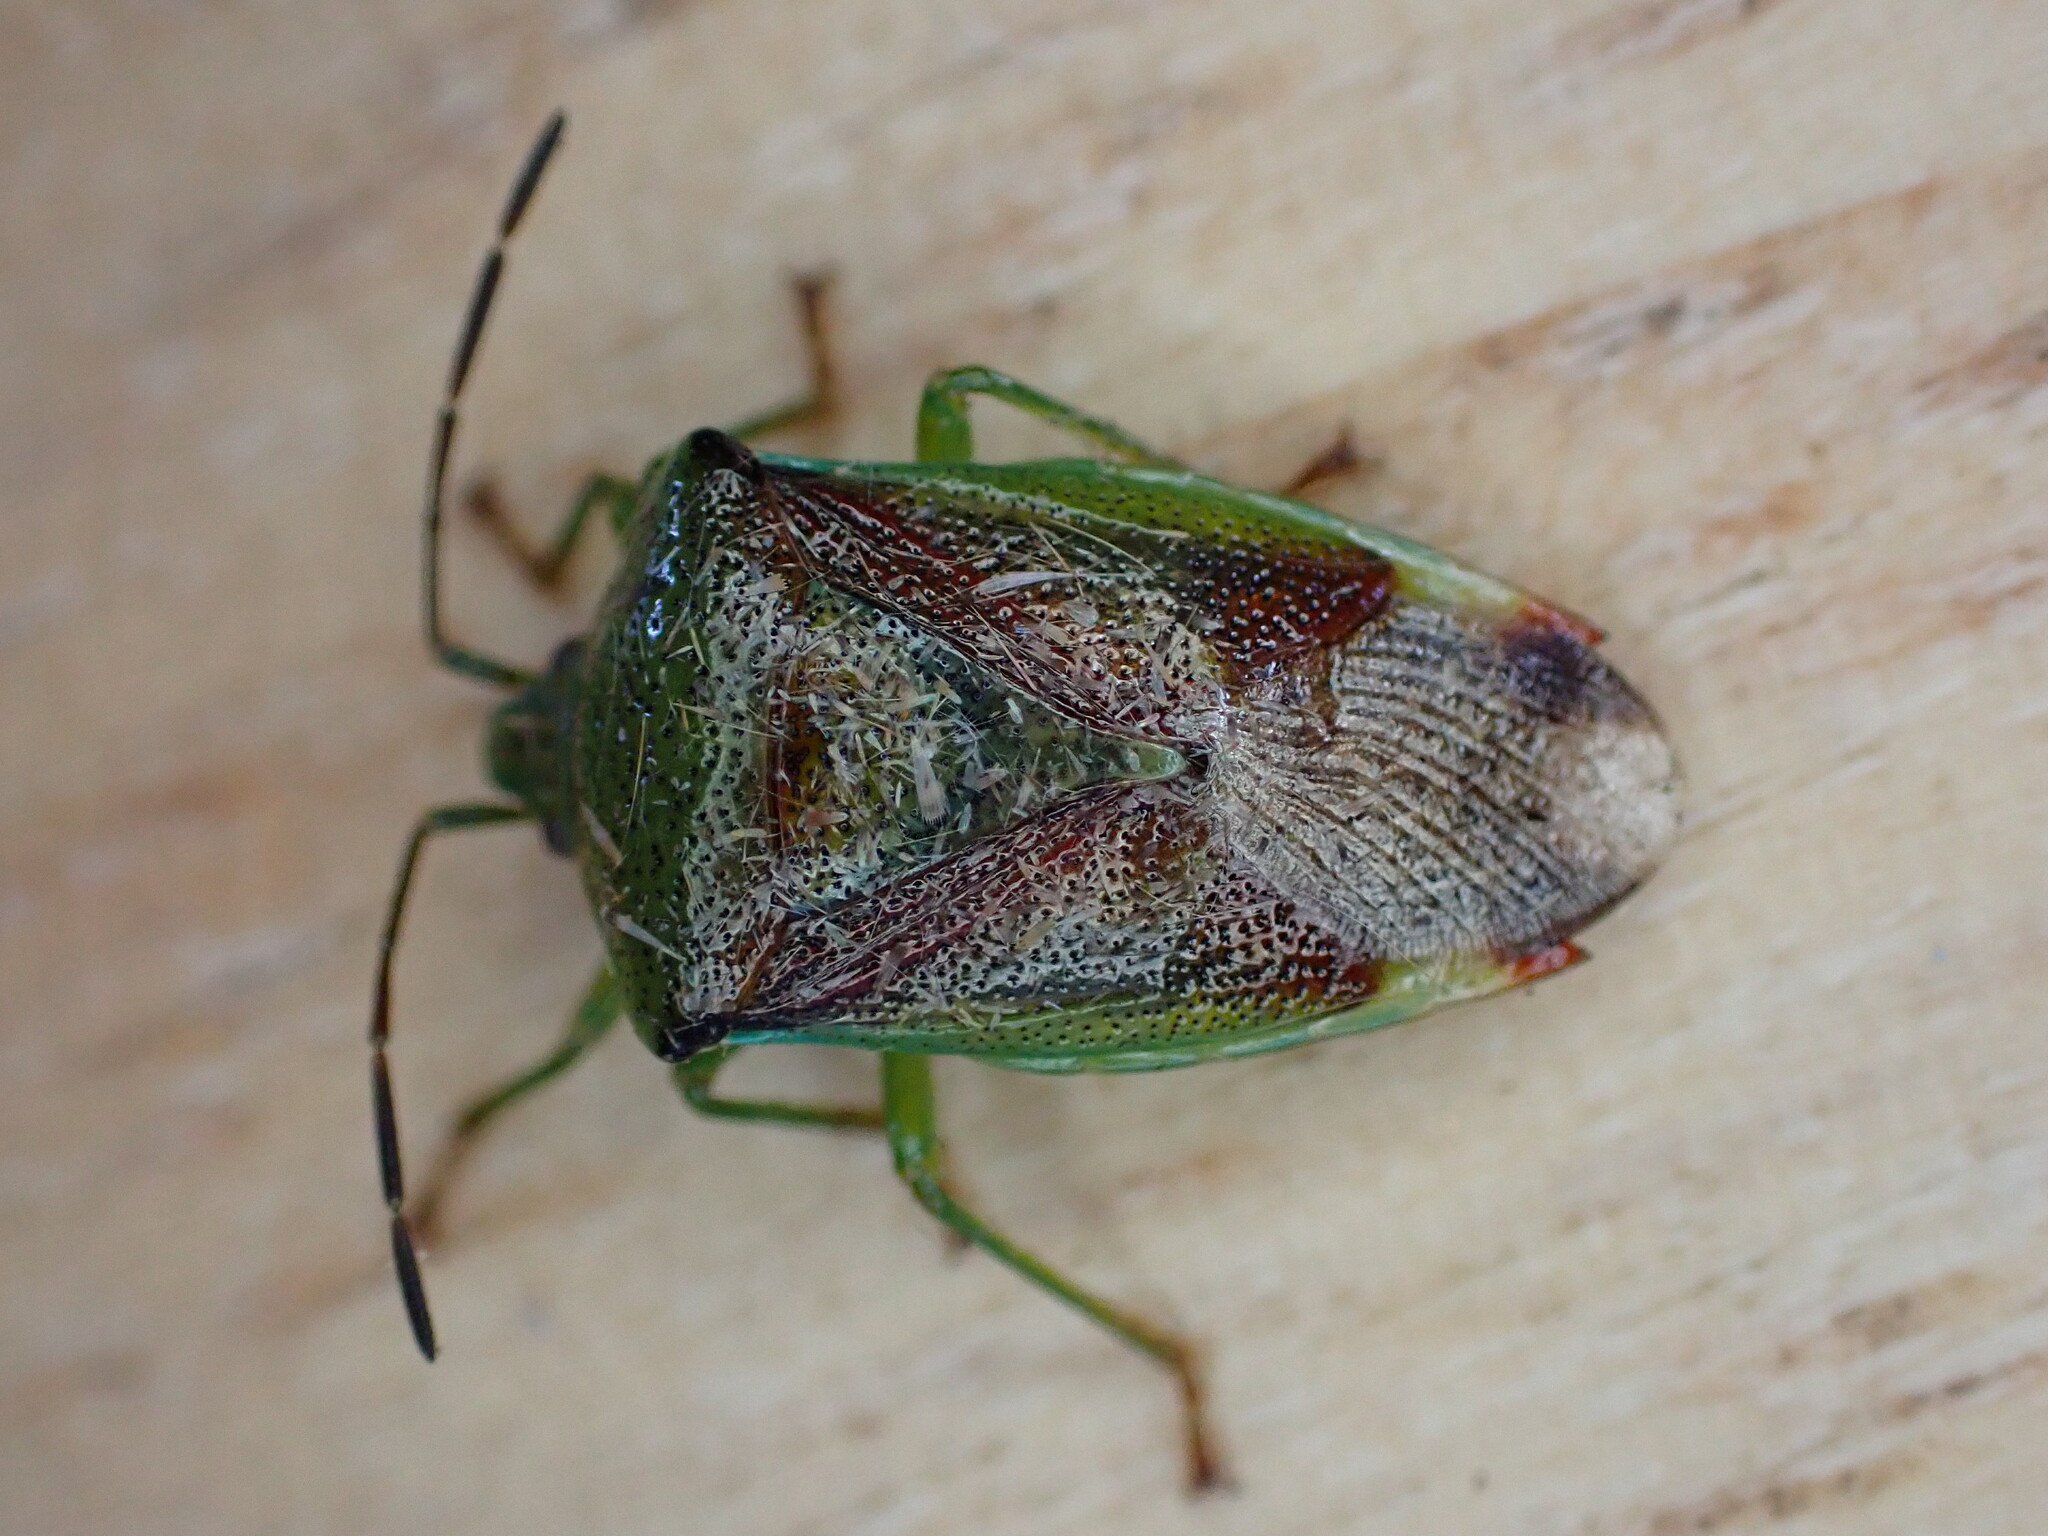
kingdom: Animalia
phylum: Arthropoda
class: Insecta
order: Hemiptera
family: Acanthosomatidae
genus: Elasmostethus
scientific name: Elasmostethus interstinctus
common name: Birch shieldbug
